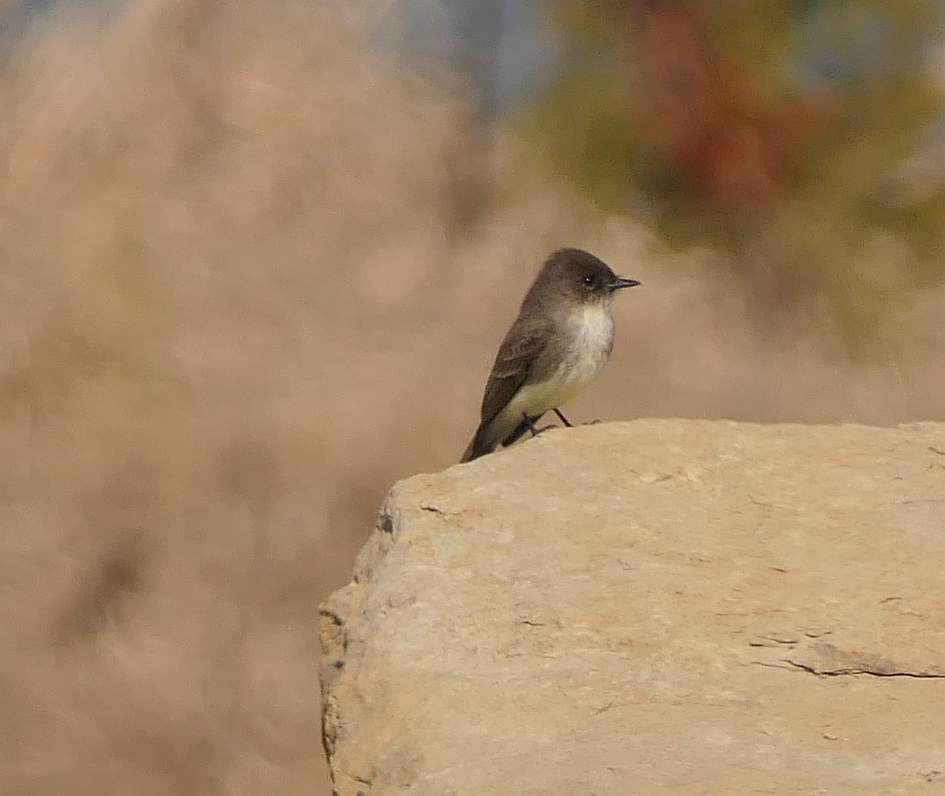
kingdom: Animalia
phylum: Chordata
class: Aves
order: Passeriformes
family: Tyrannidae
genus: Sayornis
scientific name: Sayornis phoebe
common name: Eastern phoebe
